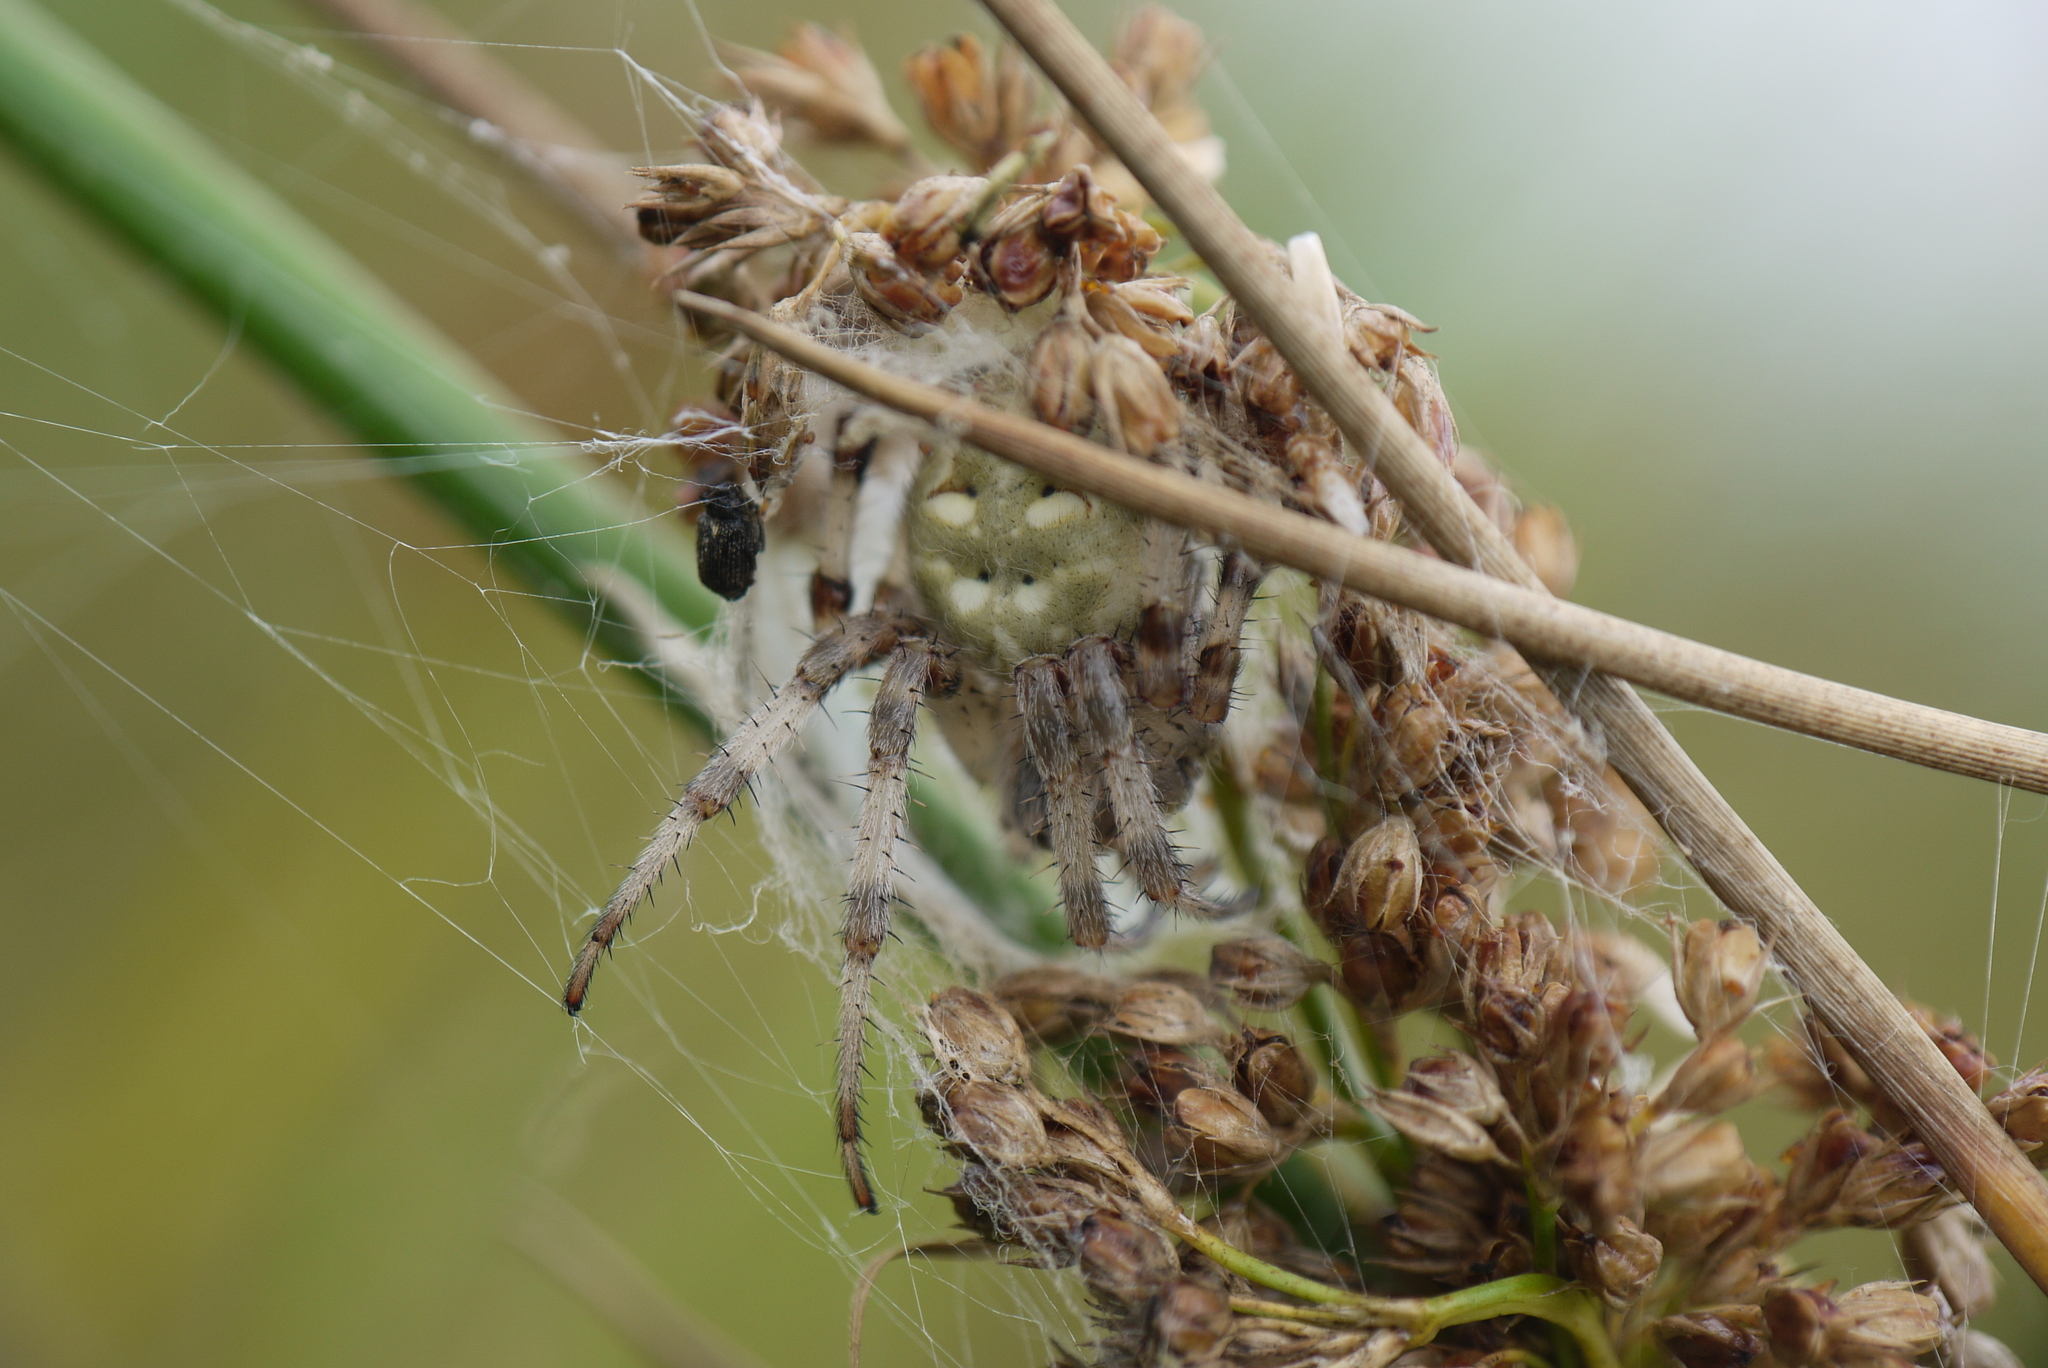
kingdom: Animalia
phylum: Arthropoda
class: Arachnida
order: Araneae
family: Araneidae
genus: Araneus
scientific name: Araneus quadratus
